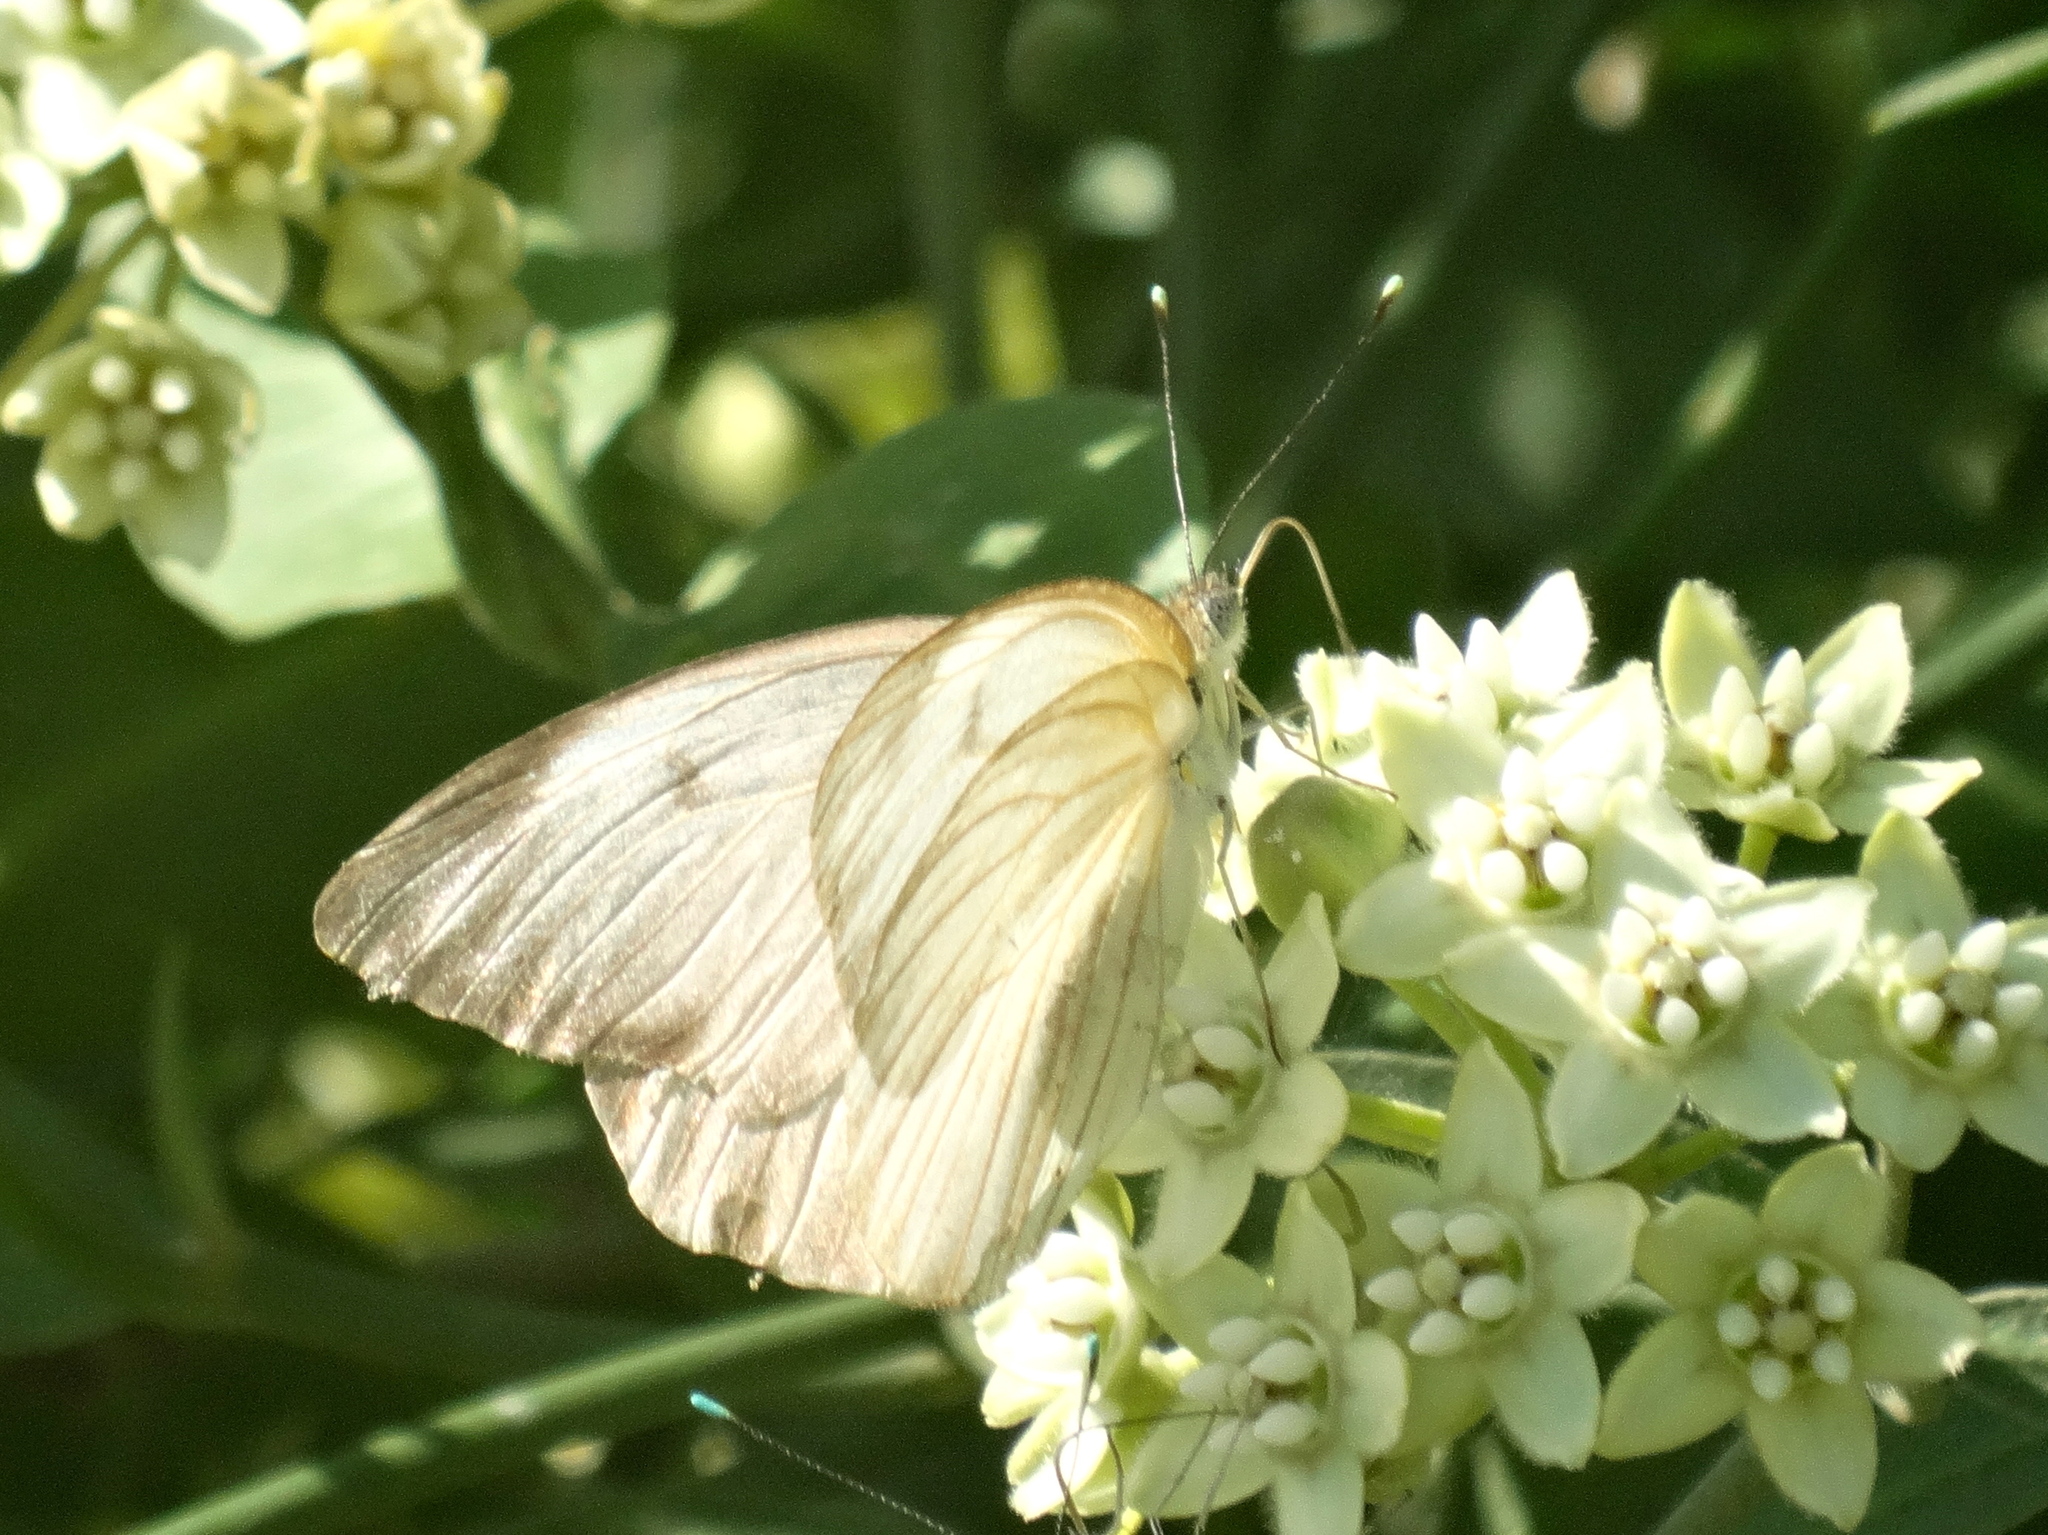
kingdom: Animalia
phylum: Arthropoda
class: Insecta
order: Lepidoptera
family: Pieridae
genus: Ascia
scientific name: Ascia monuste
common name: Great southern white
